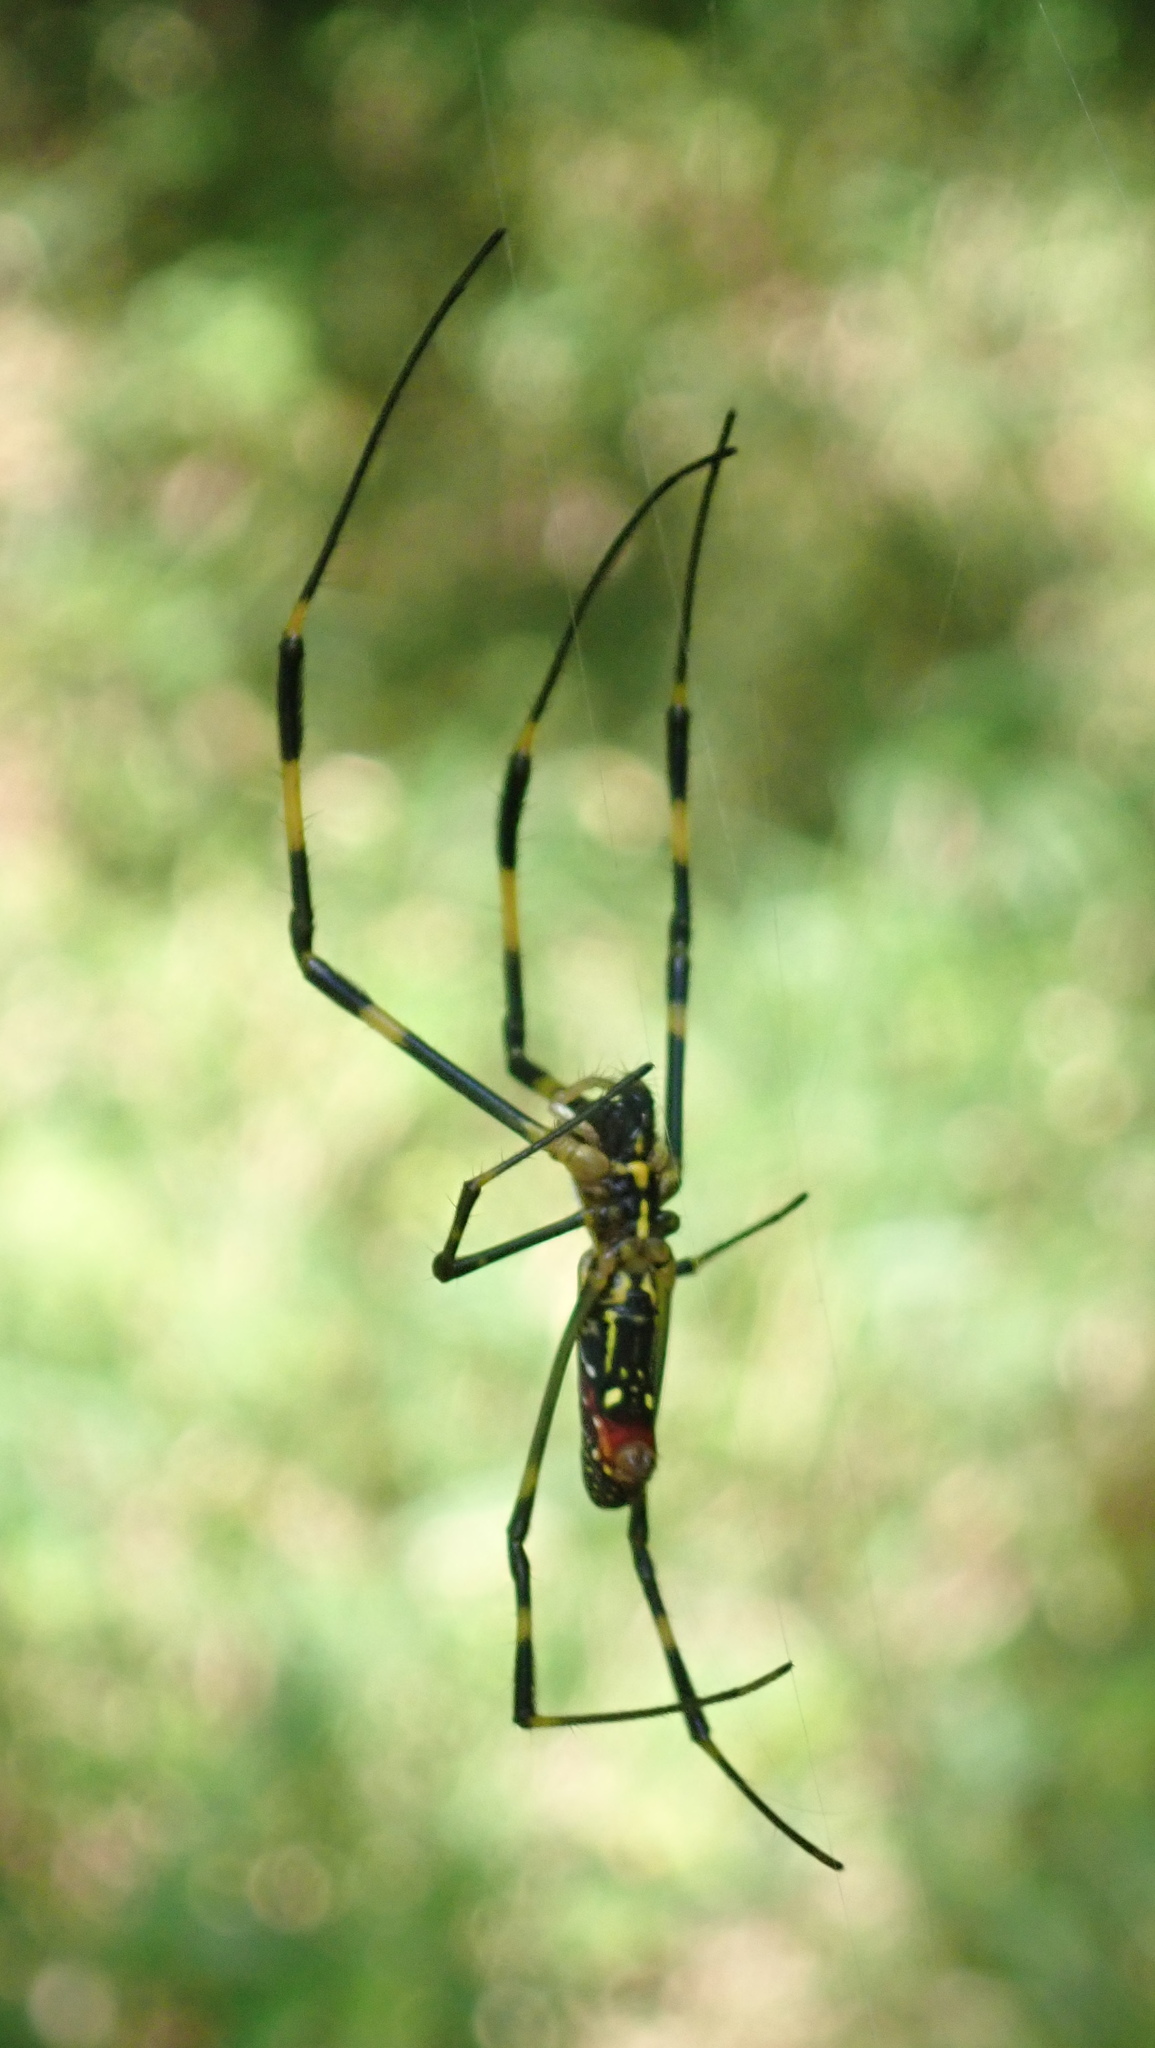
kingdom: Animalia
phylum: Arthropoda
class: Arachnida
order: Araneae
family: Araneidae
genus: Trichonephila
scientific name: Trichonephila clavata
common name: Jorō spider
